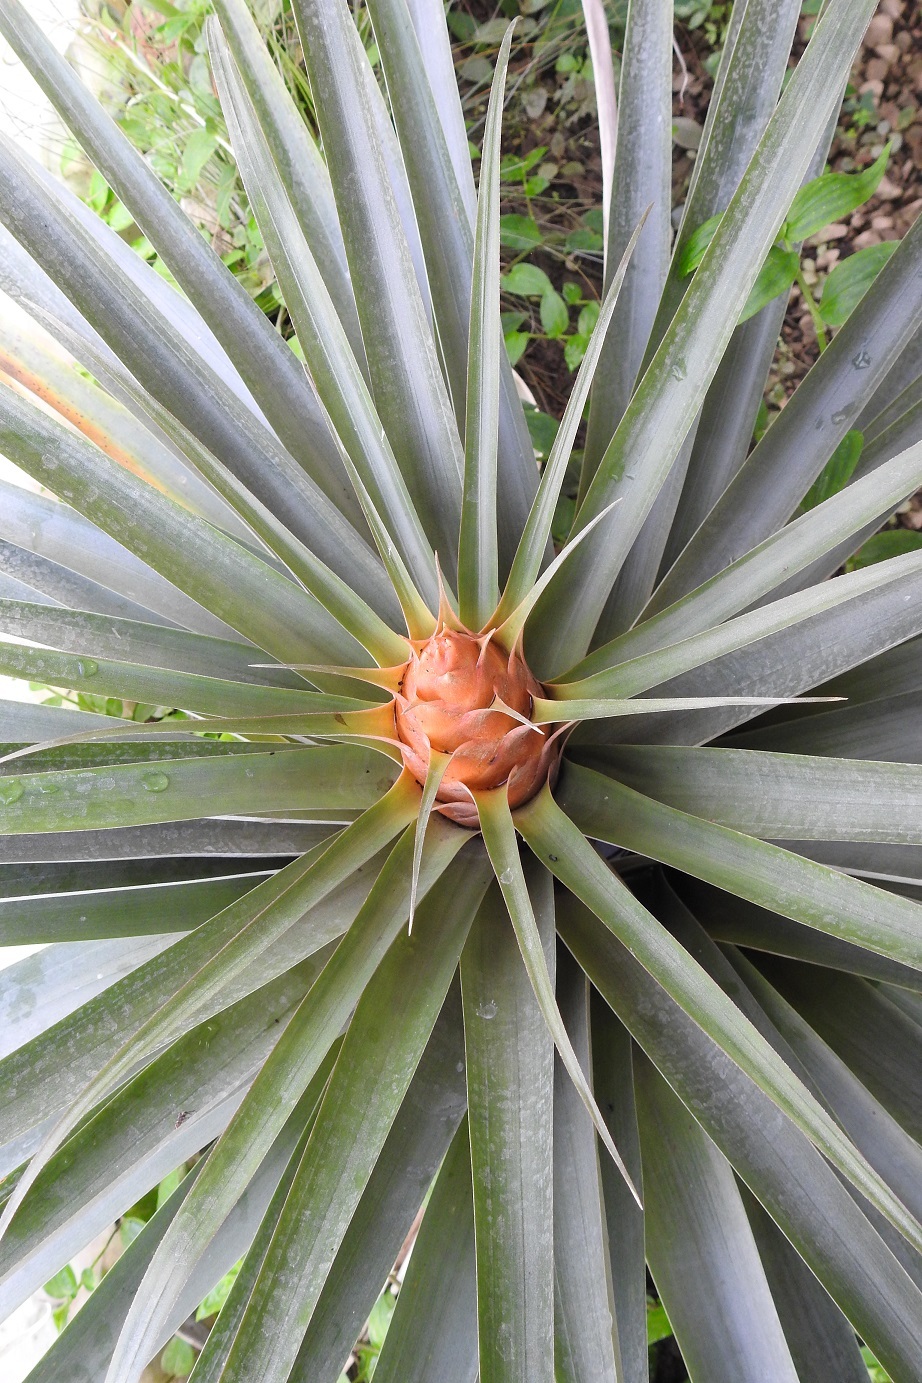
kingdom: Plantae
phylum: Tracheophyta
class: Liliopsida
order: Poales
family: Bromeliaceae
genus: Tillandsia
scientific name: Tillandsia ponderosa
